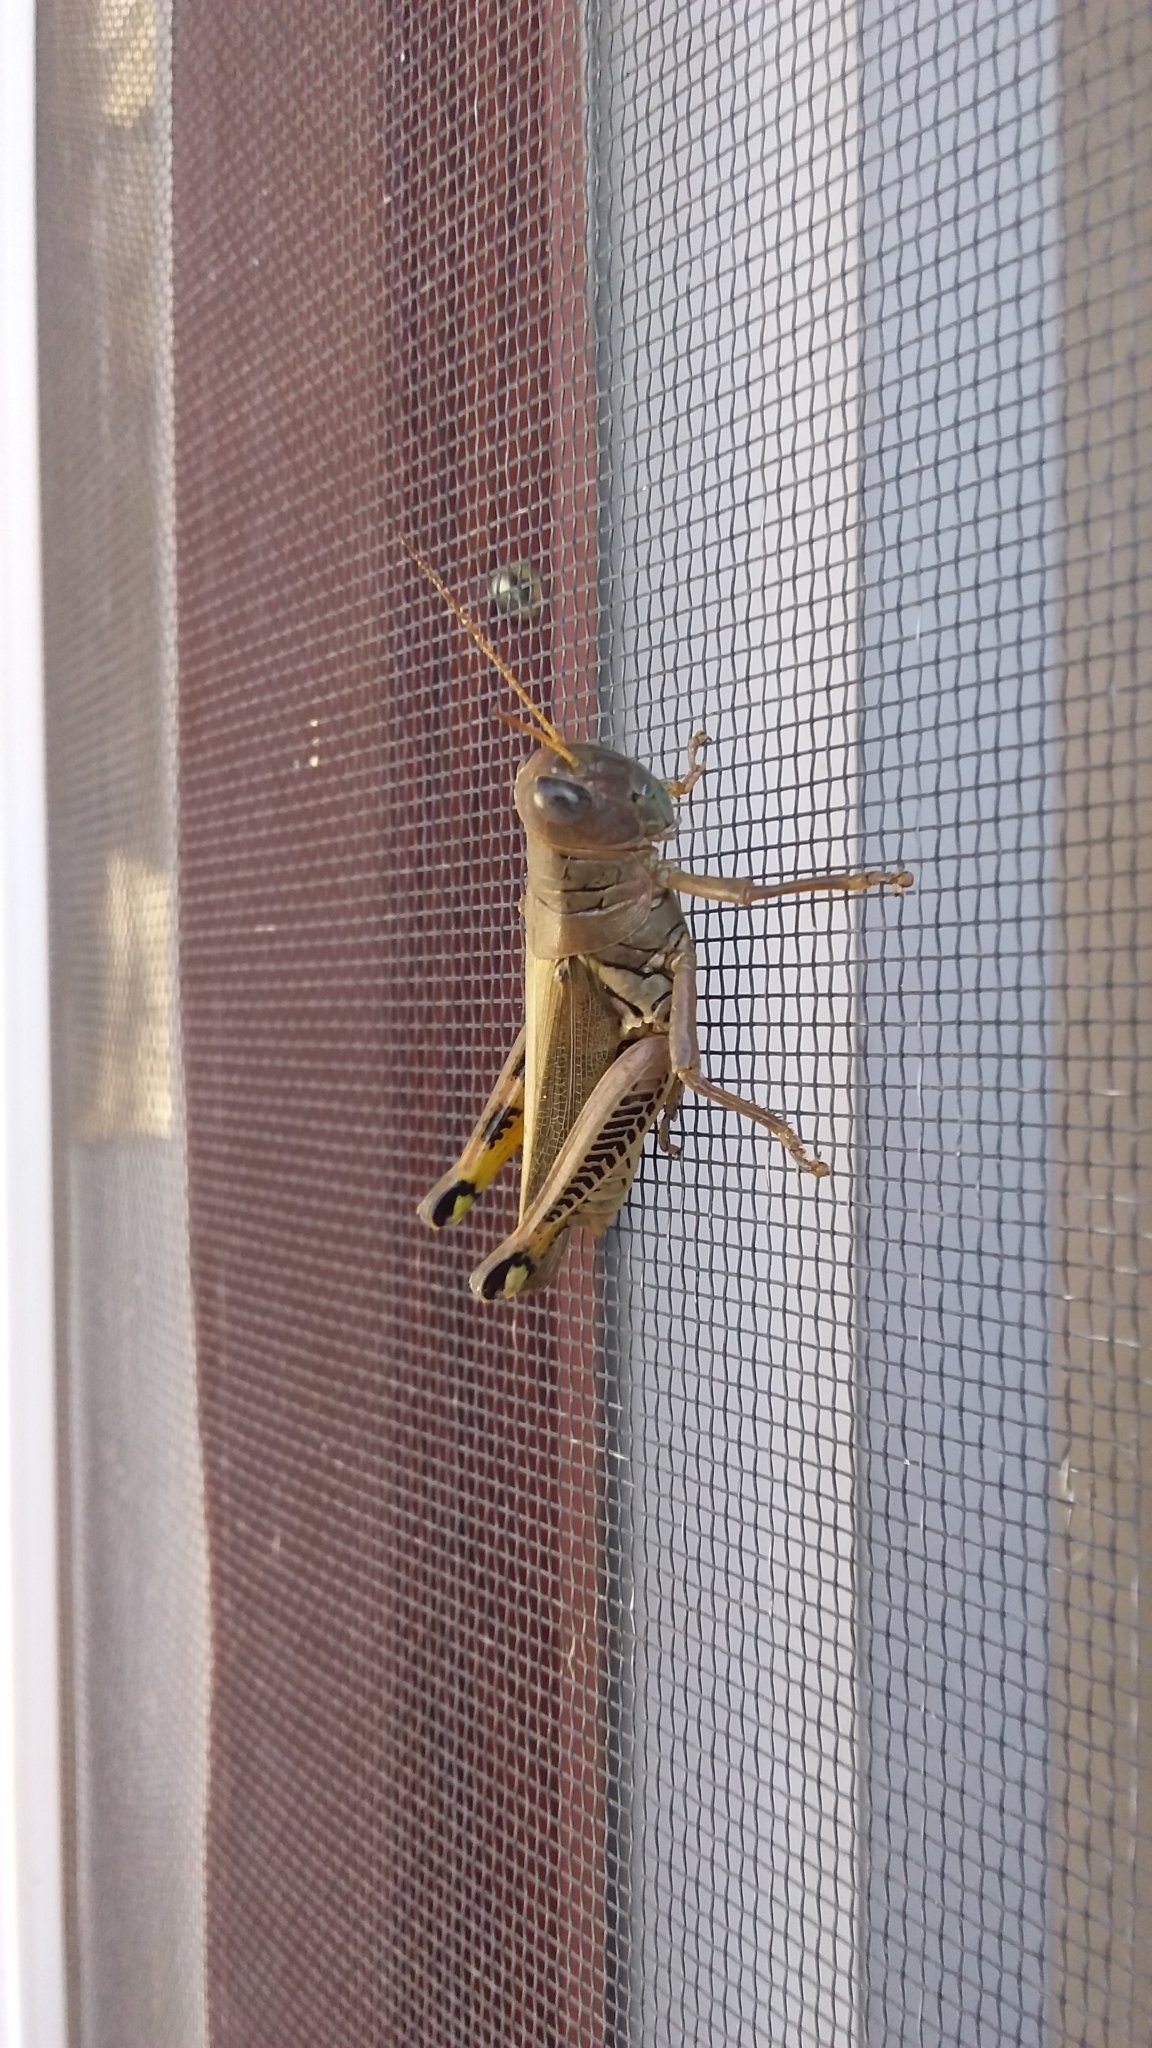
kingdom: Animalia
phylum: Arthropoda
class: Insecta
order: Orthoptera
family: Acrididae
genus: Melanoplus
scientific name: Melanoplus differentialis
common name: Differential grasshopper
